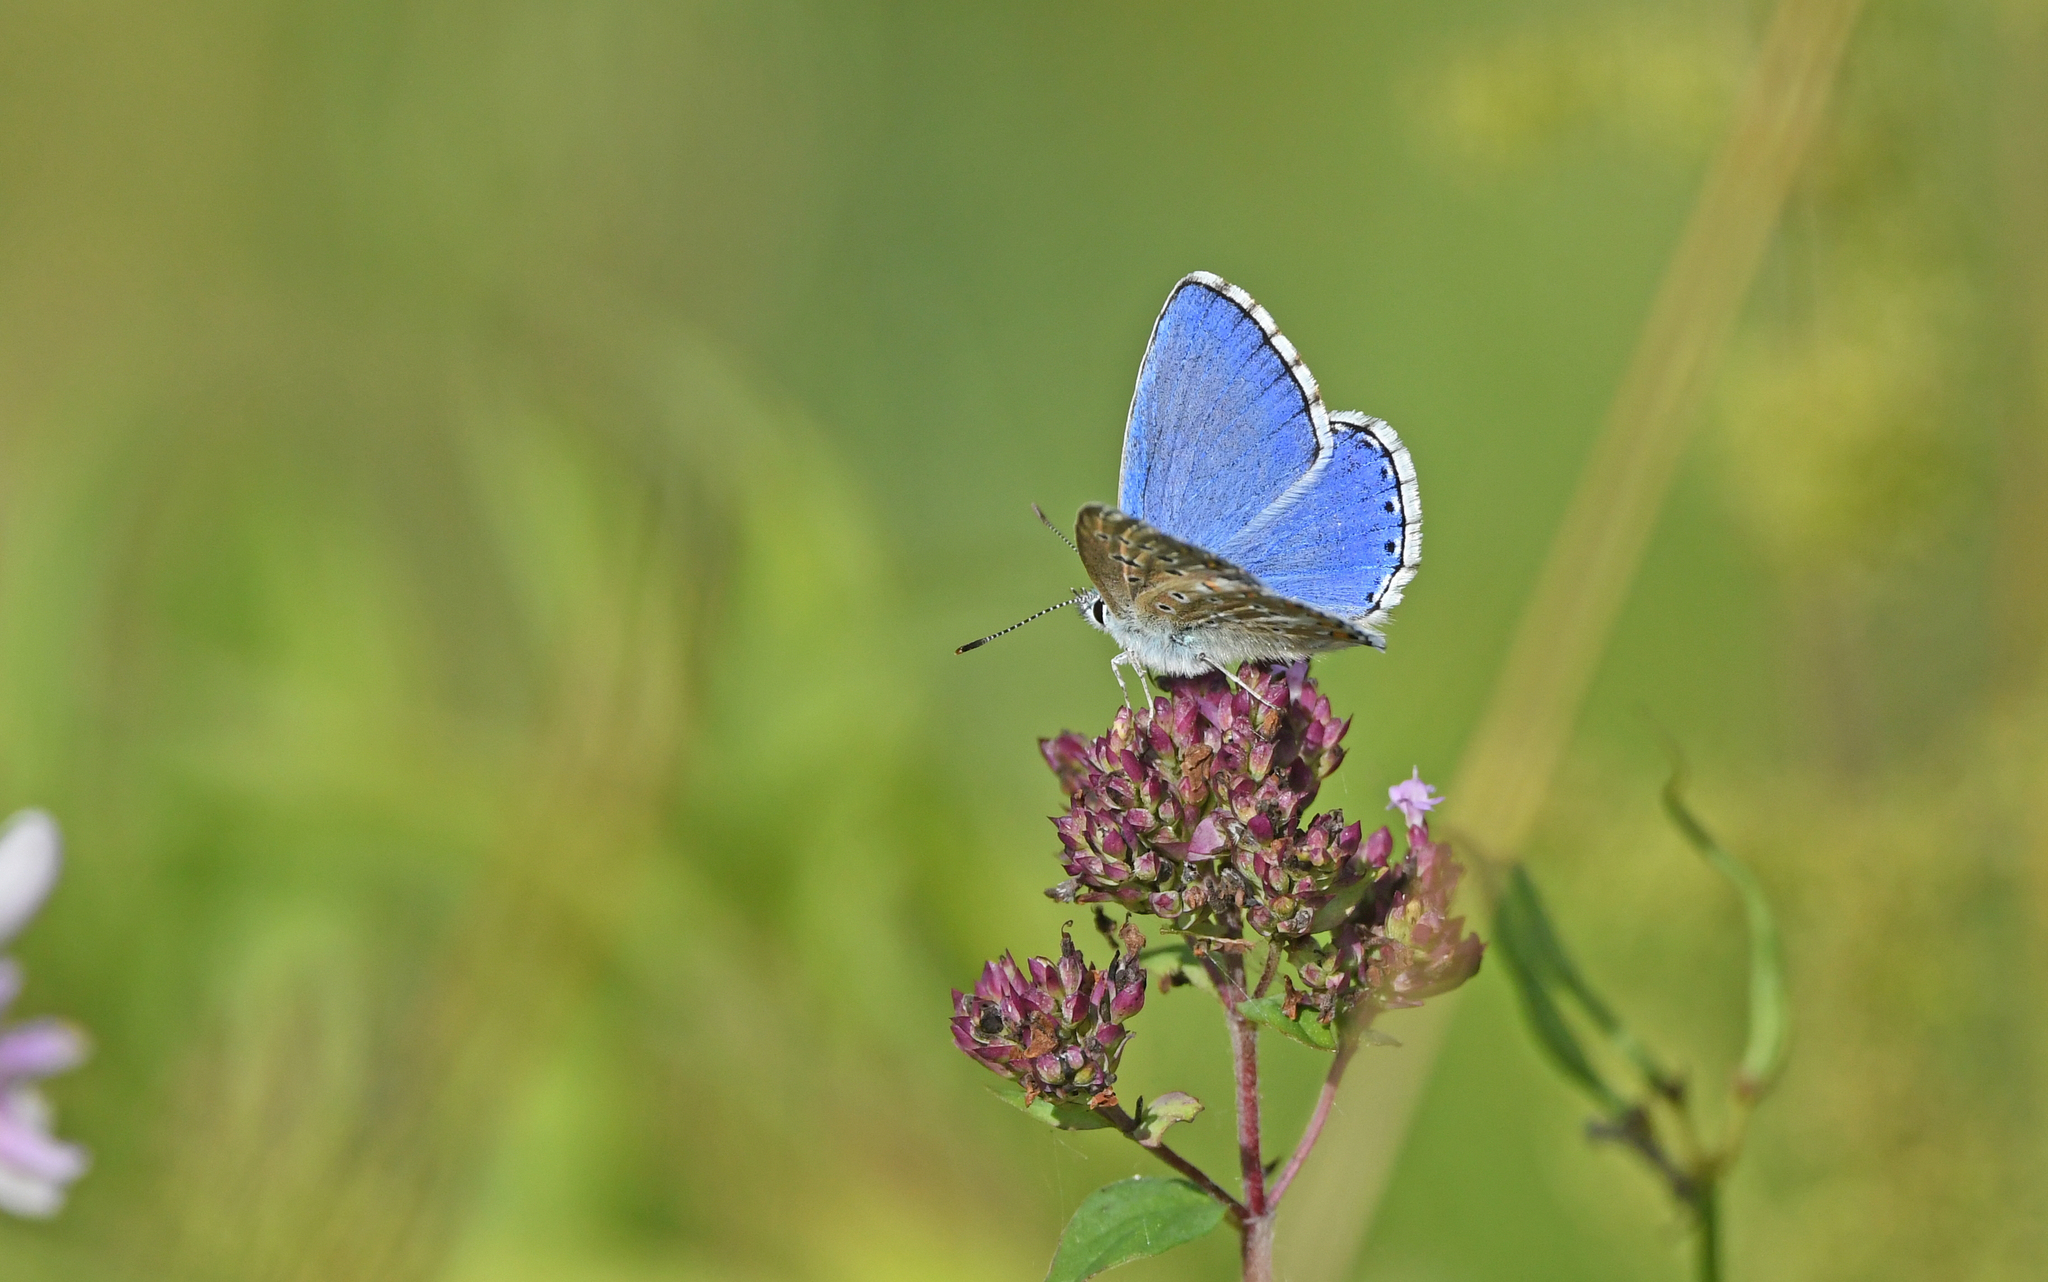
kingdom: Animalia
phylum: Arthropoda
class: Insecta
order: Lepidoptera
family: Lycaenidae
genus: Lysandra
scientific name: Lysandra bellargus
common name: Adonis blue
